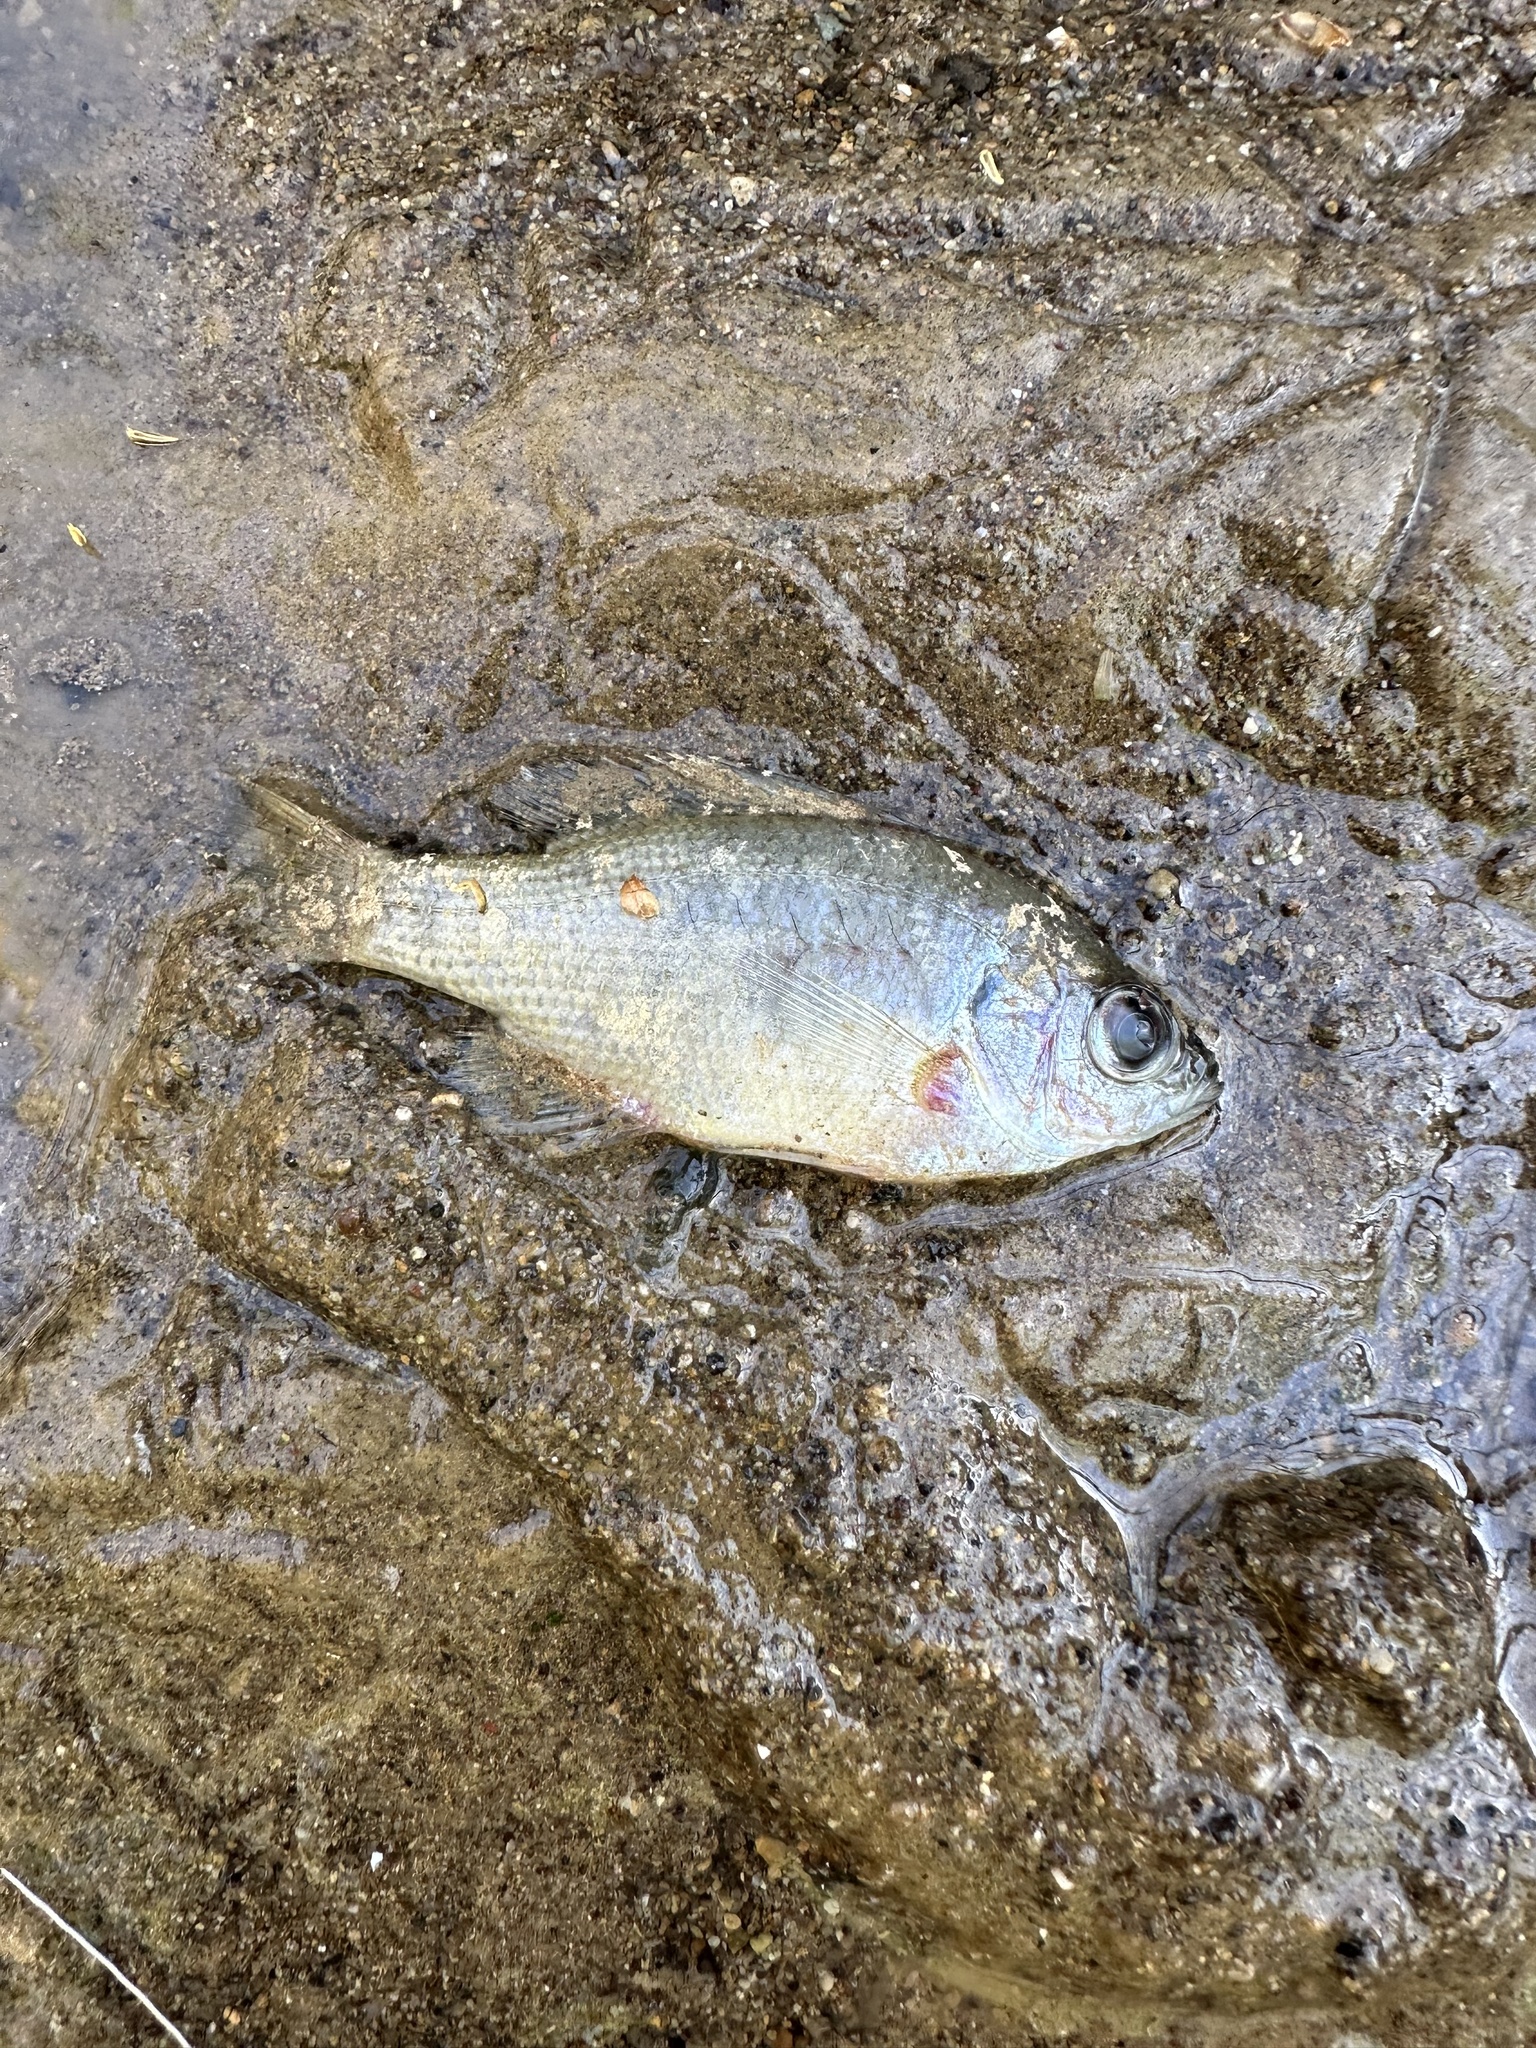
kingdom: Animalia
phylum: Chordata
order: Perciformes
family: Centrarchidae
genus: Lepomis
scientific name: Lepomis macrochirus
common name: Bluegill
